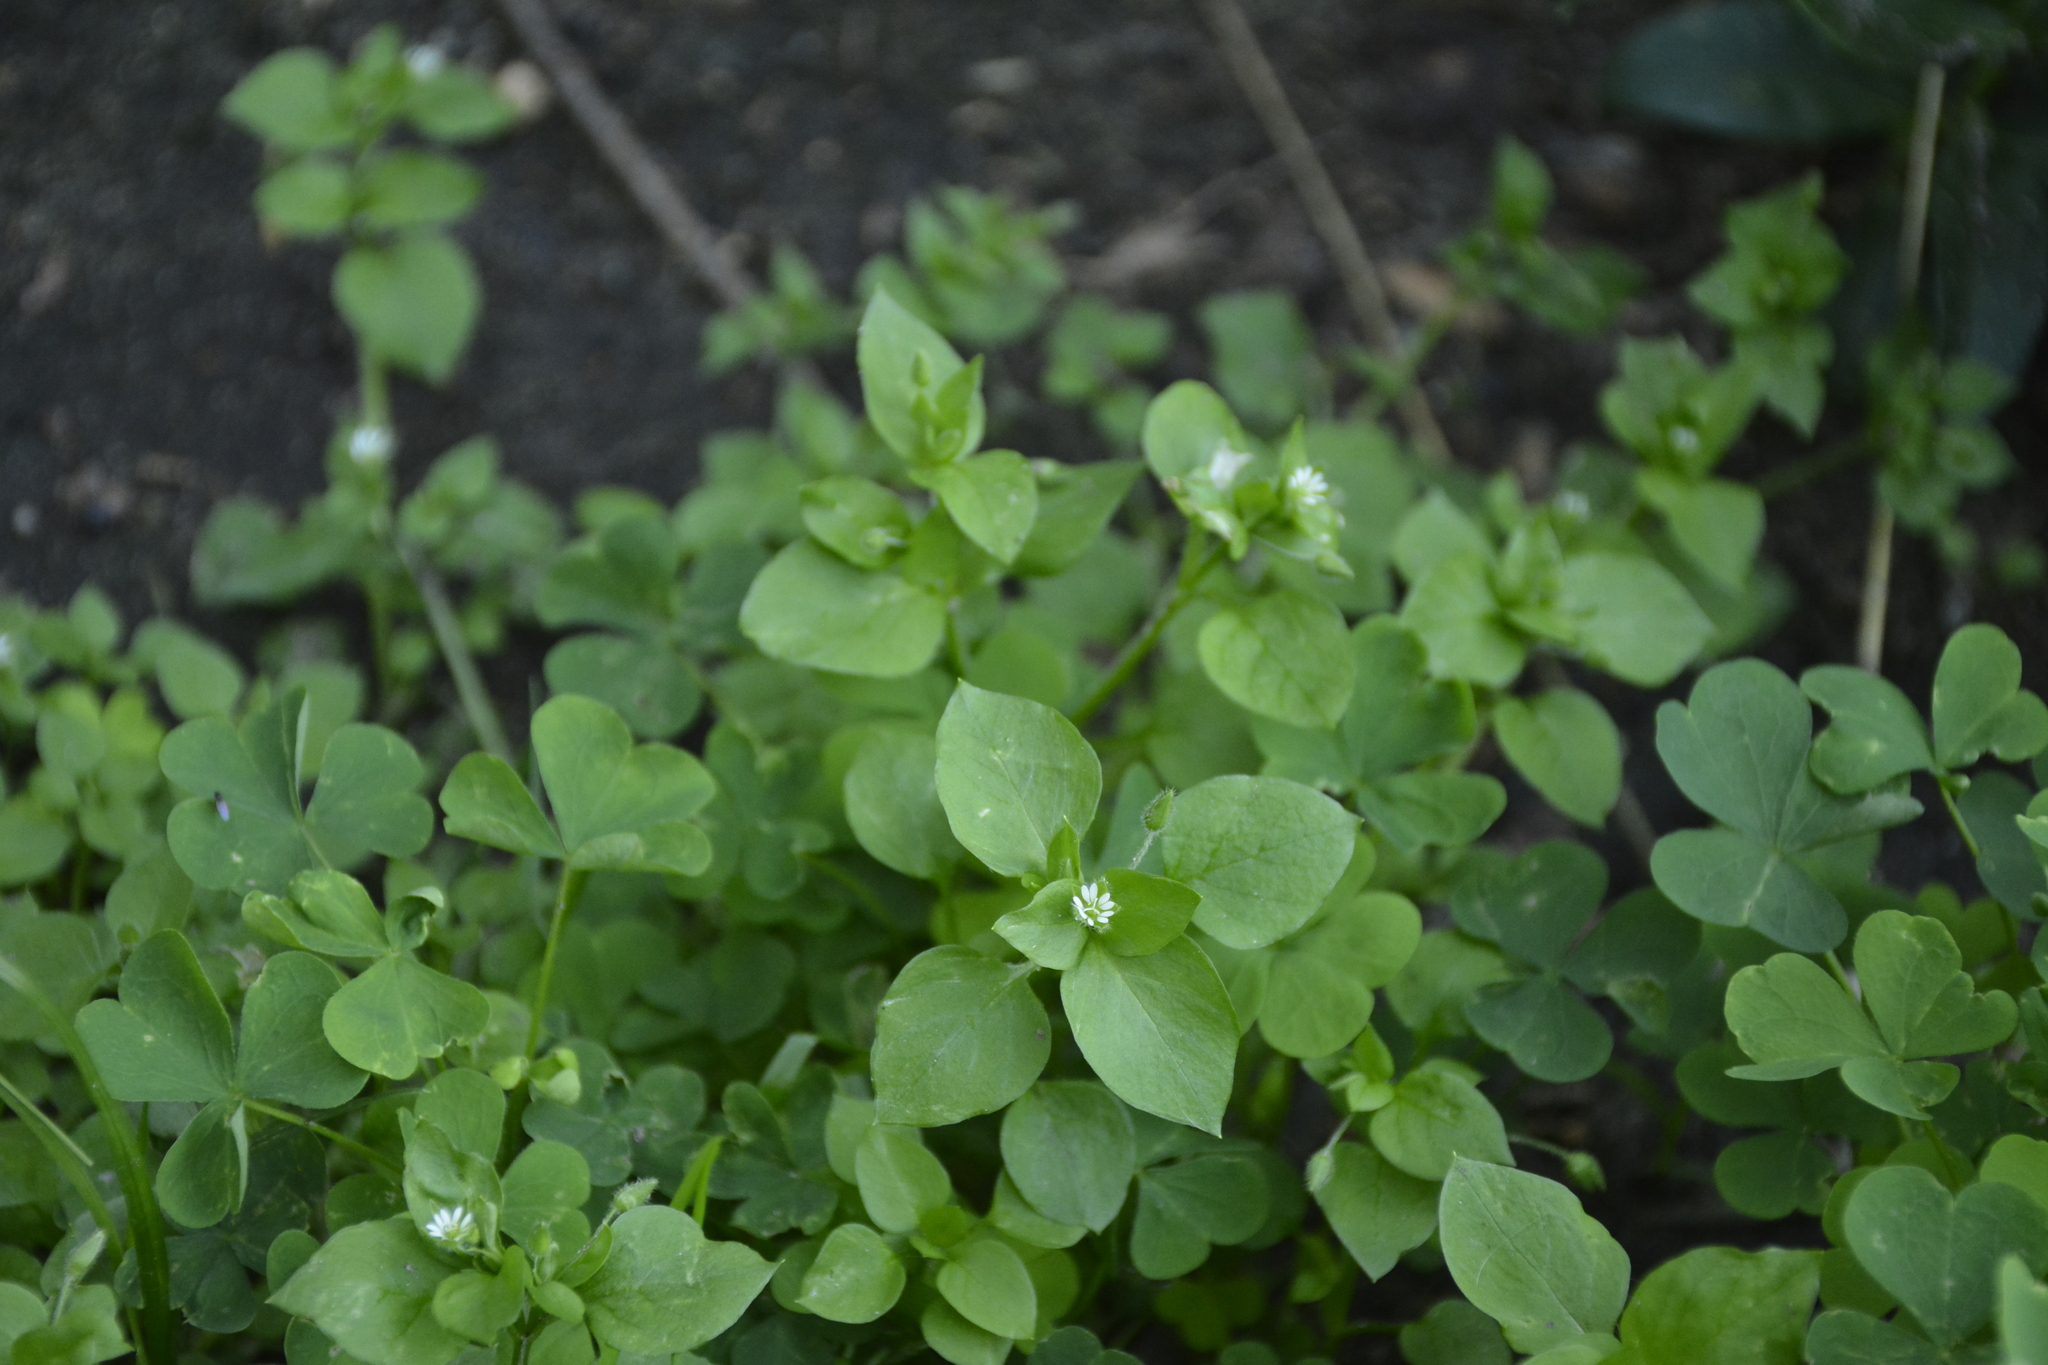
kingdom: Plantae
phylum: Tracheophyta
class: Magnoliopsida
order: Caryophyllales
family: Caryophyllaceae
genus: Stellaria
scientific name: Stellaria media
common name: Common chickweed
